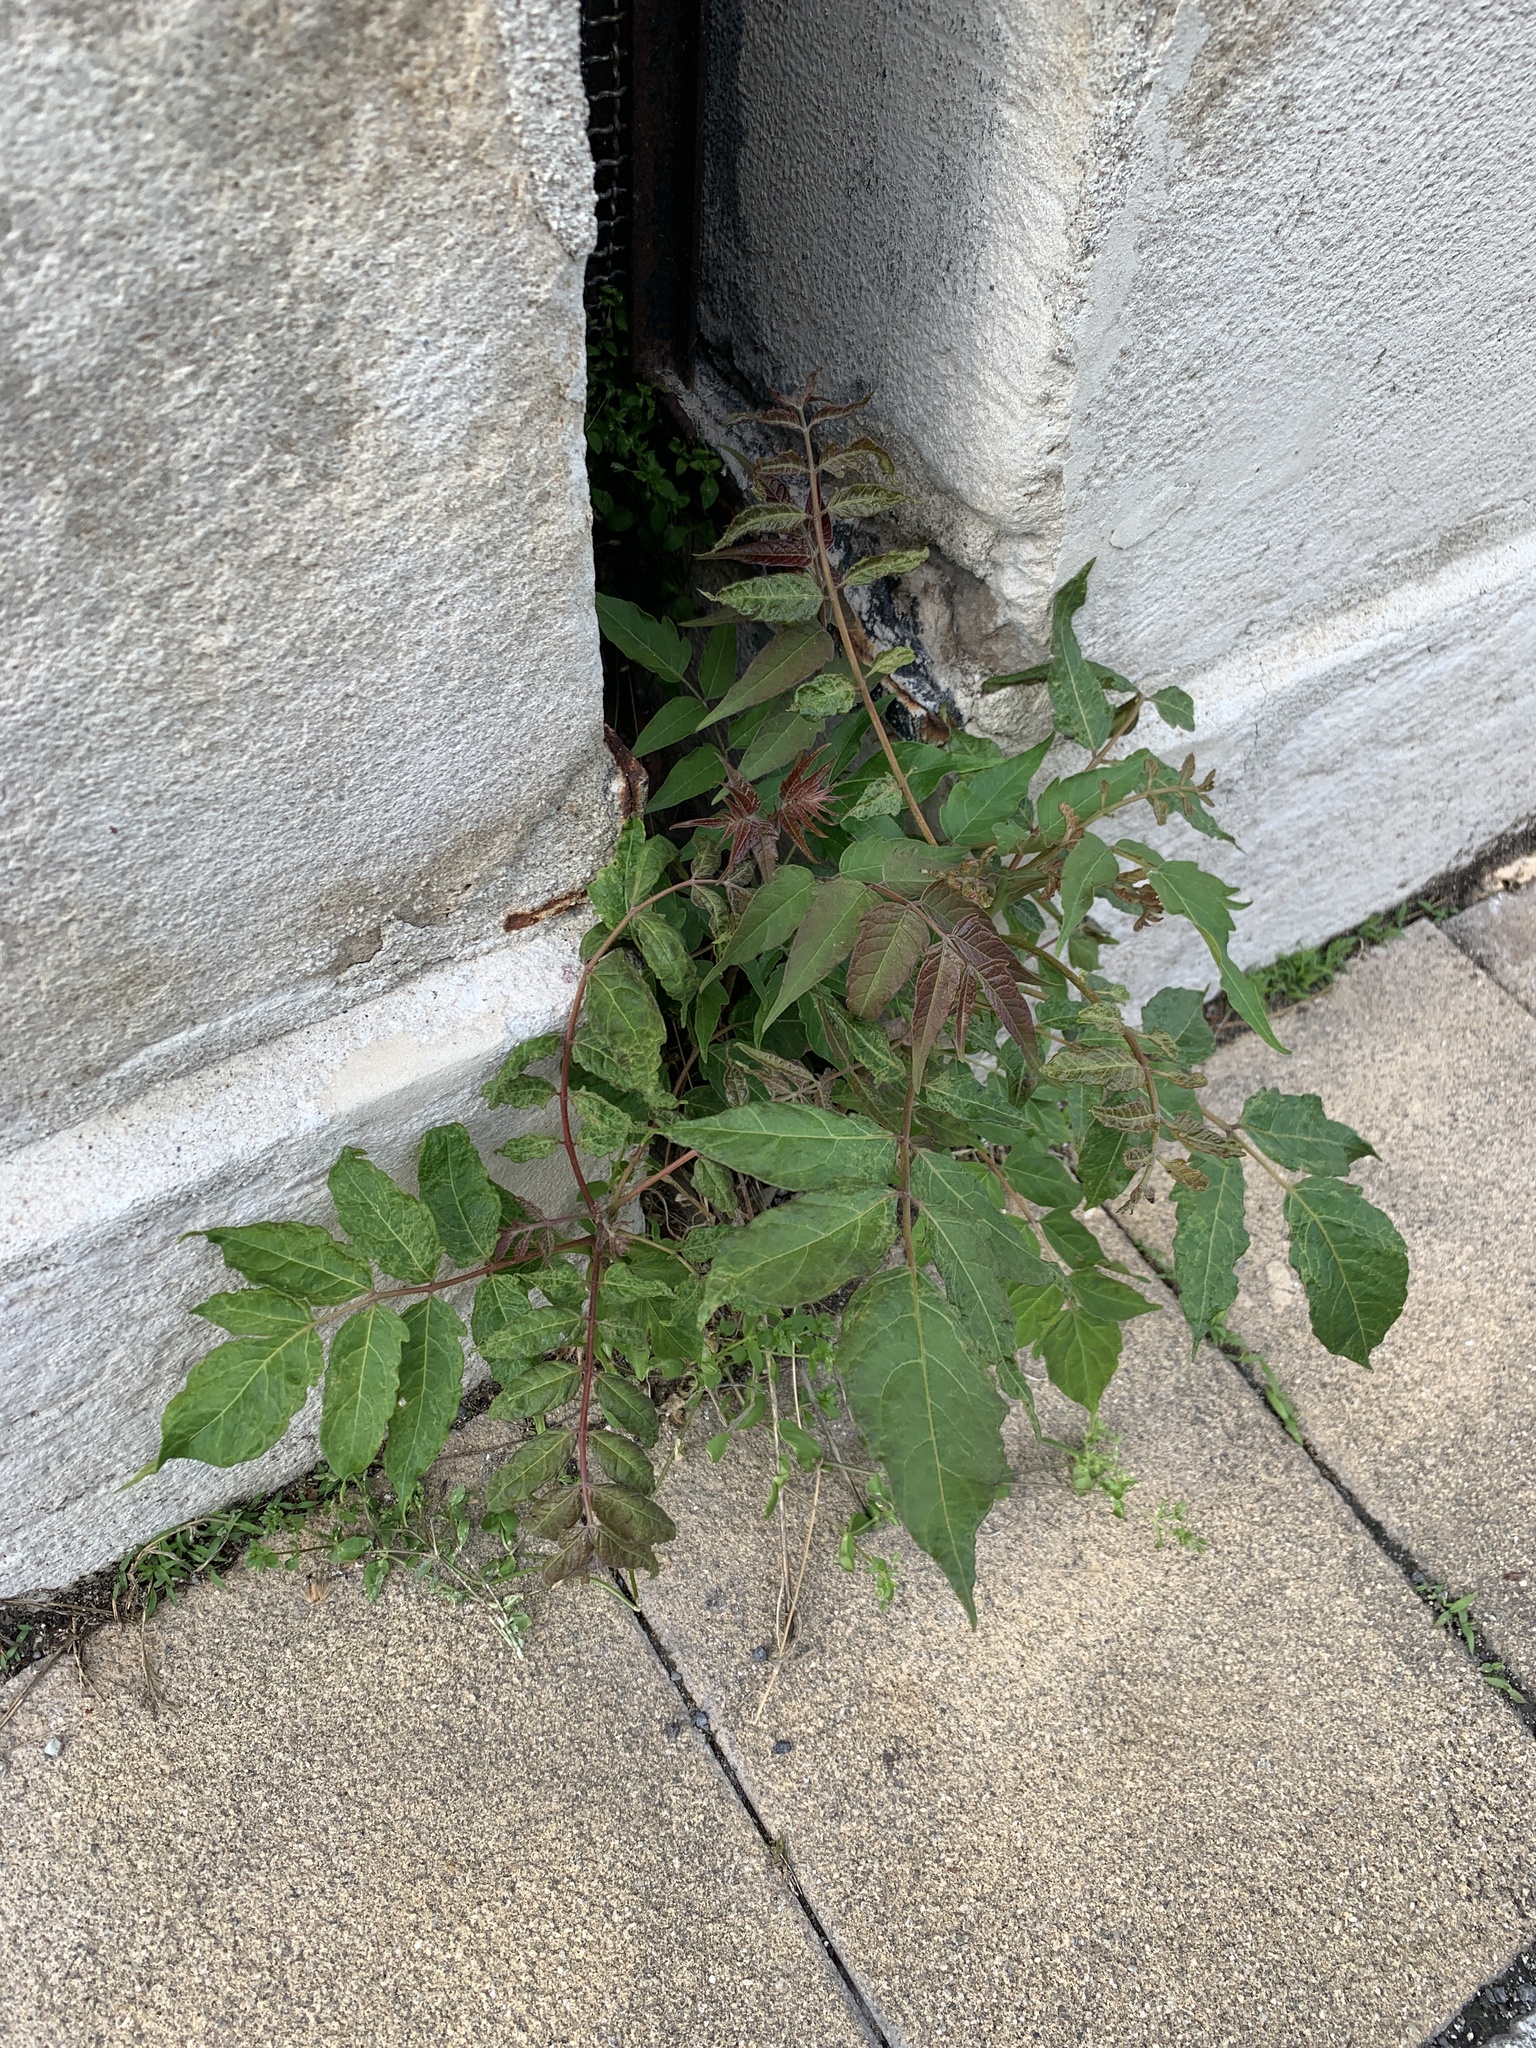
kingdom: Plantae
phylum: Tracheophyta
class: Magnoliopsida
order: Sapindales
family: Simaroubaceae
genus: Ailanthus
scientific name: Ailanthus altissima
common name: Tree-of-heaven
